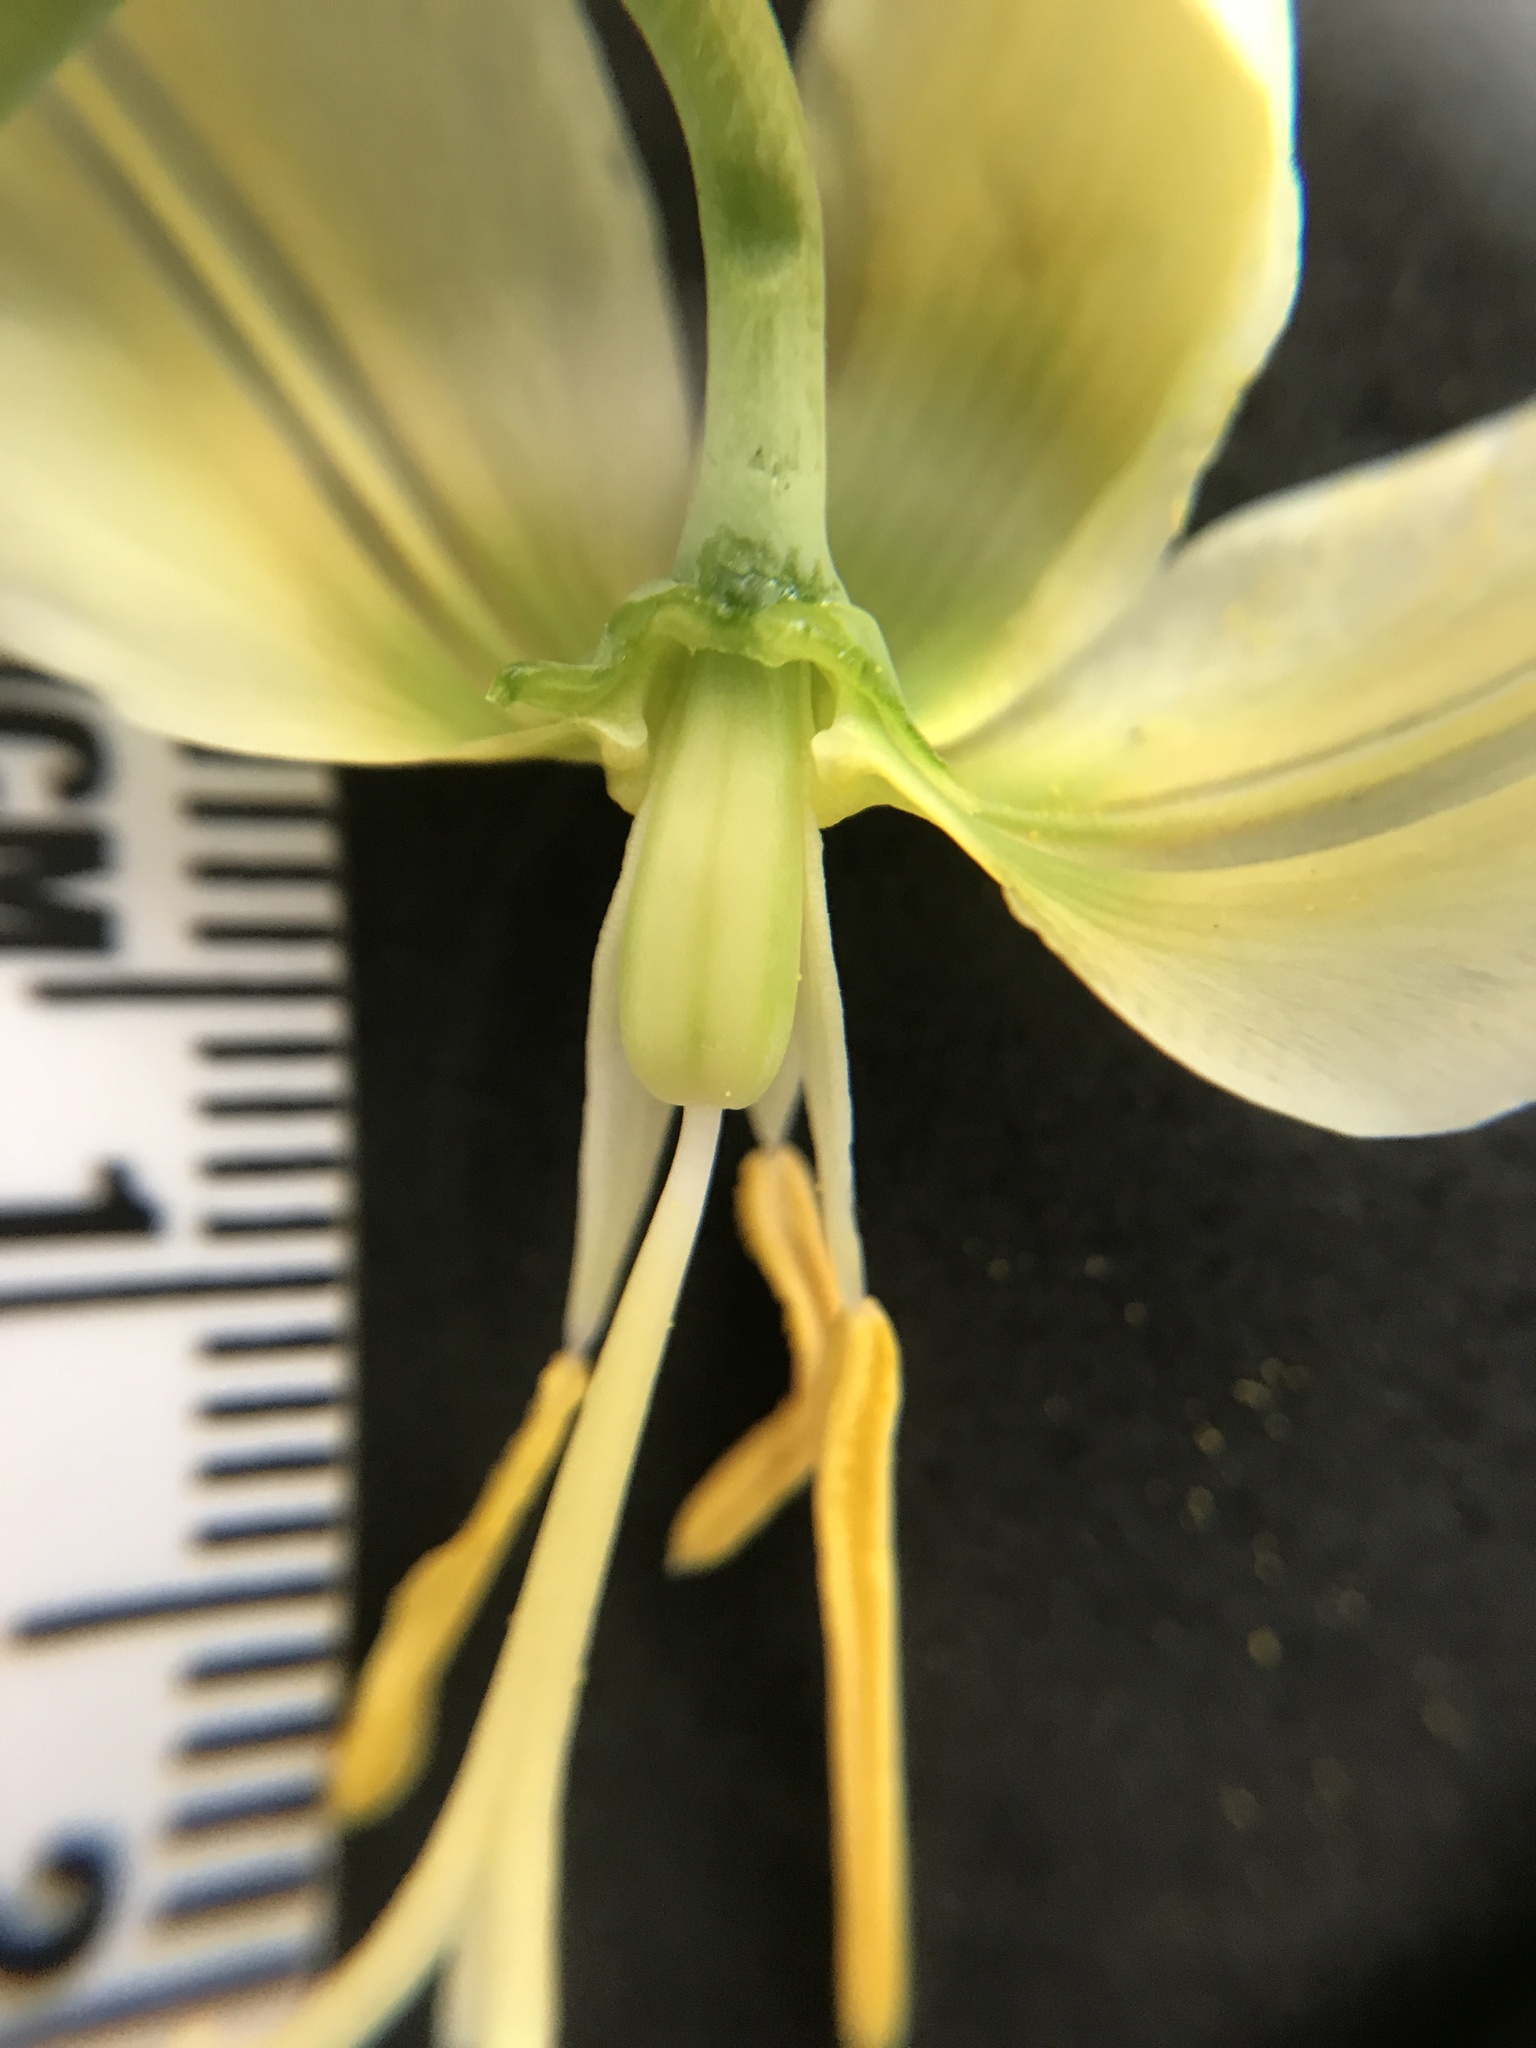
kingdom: Plantae
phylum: Tracheophyta
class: Liliopsida
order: Liliales
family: Liliaceae
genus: Erythronium
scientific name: Erythronium oregonum
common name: Giant adder's-tongue
